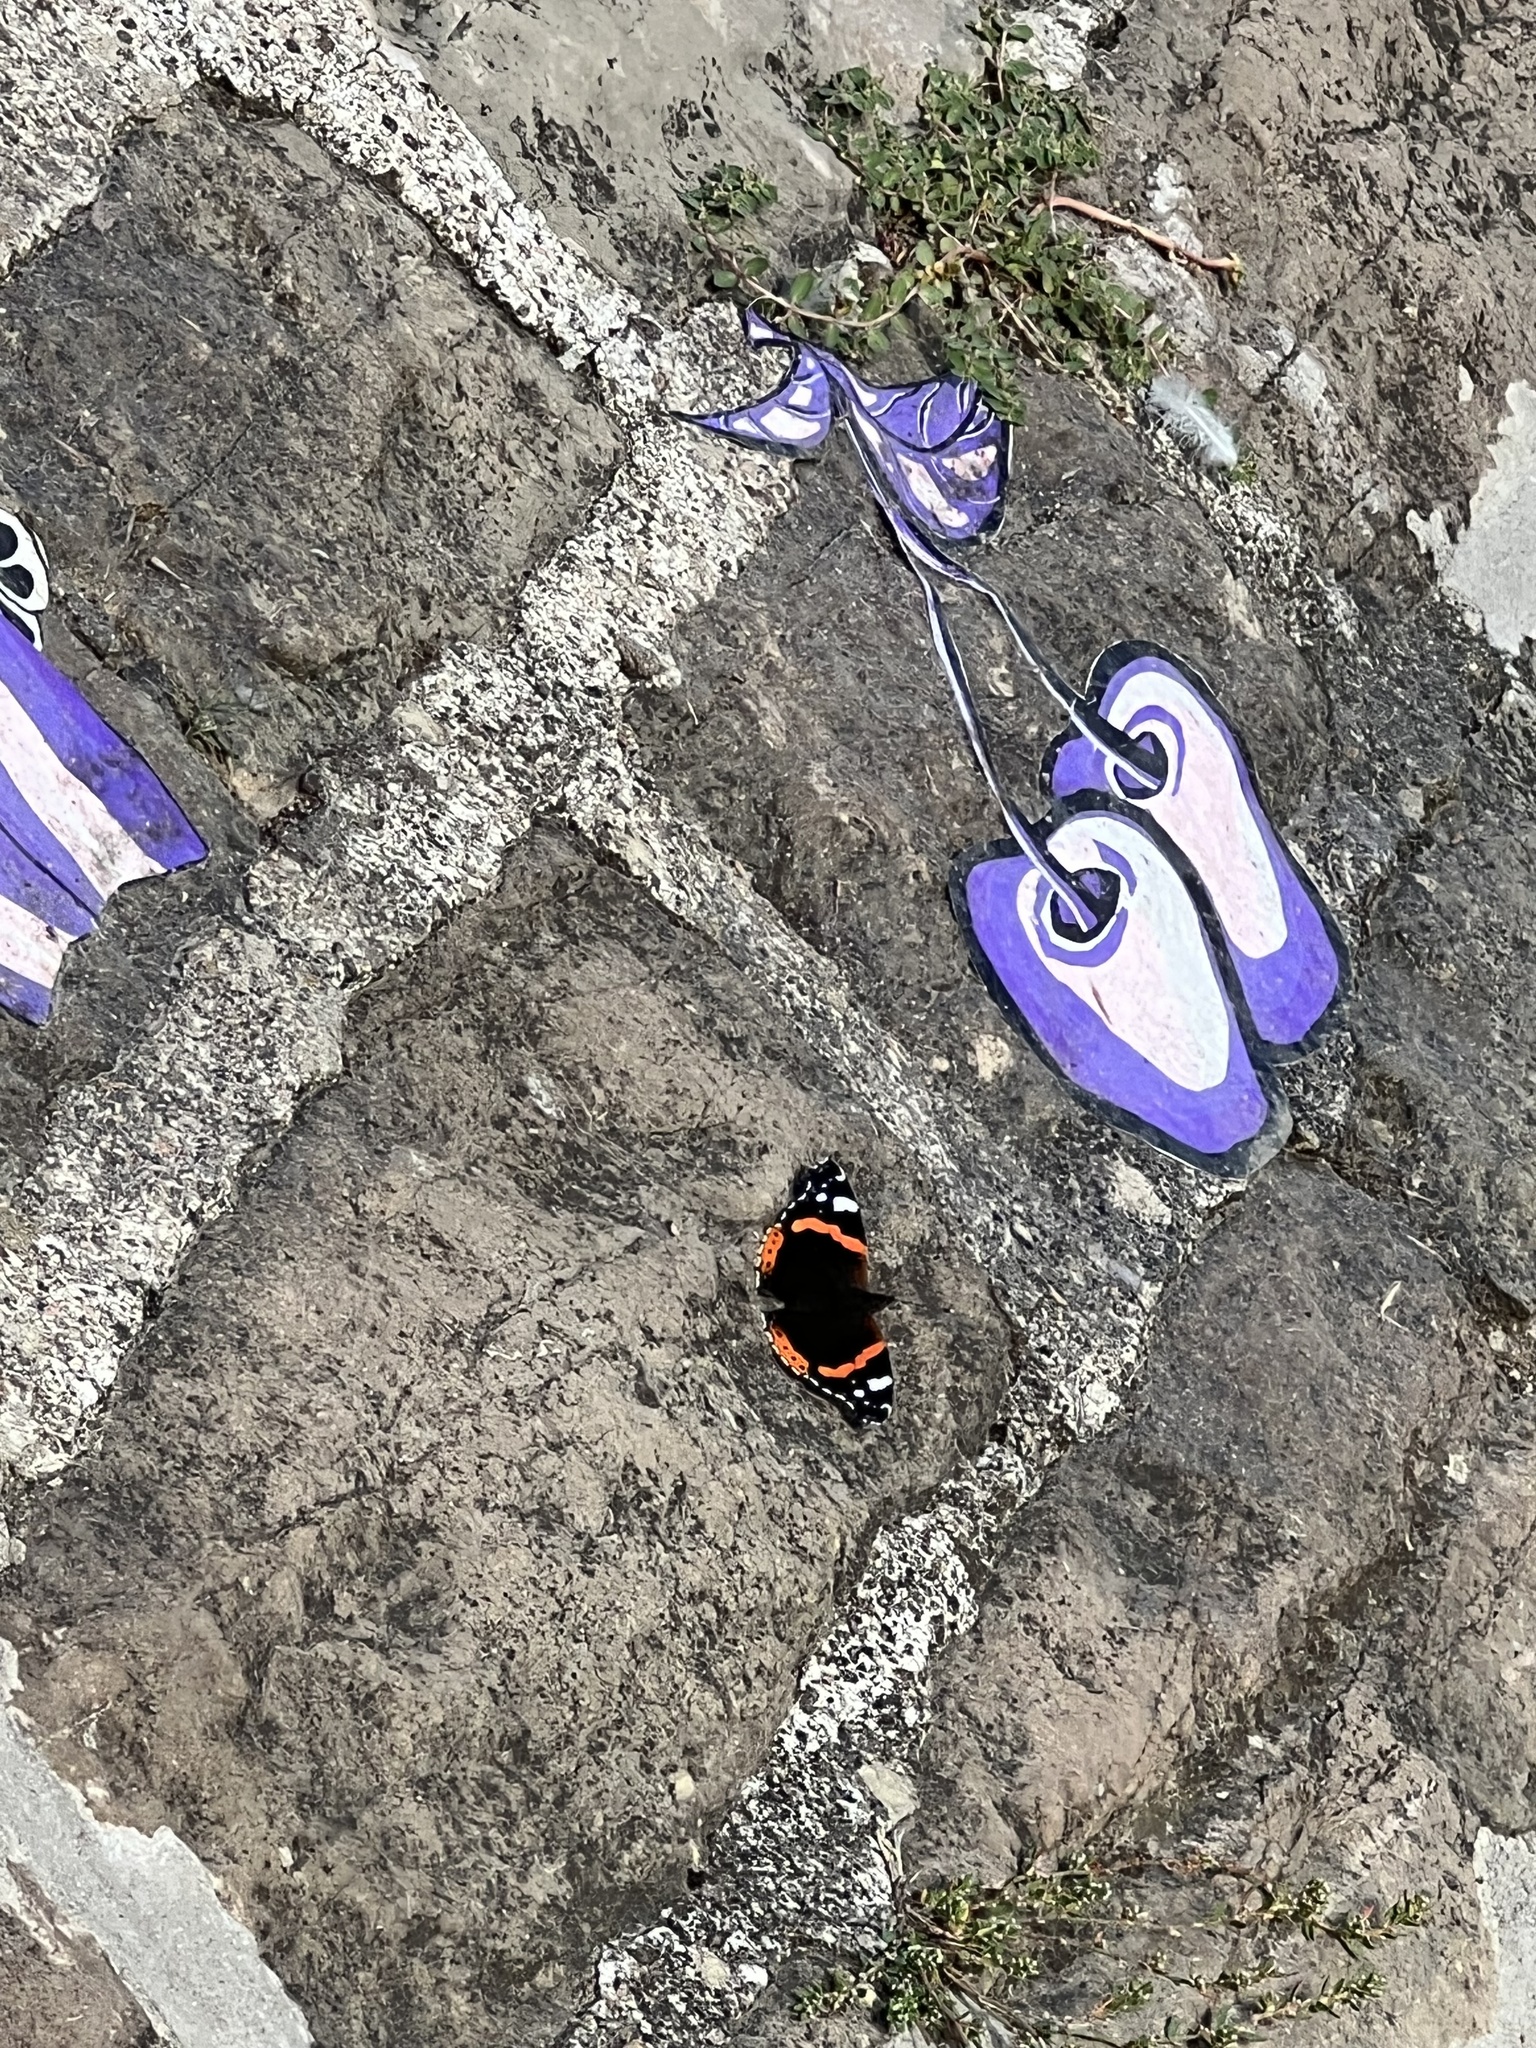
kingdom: Animalia
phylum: Arthropoda
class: Insecta
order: Lepidoptera
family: Nymphalidae
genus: Vanessa
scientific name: Vanessa atalanta
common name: Red admiral
